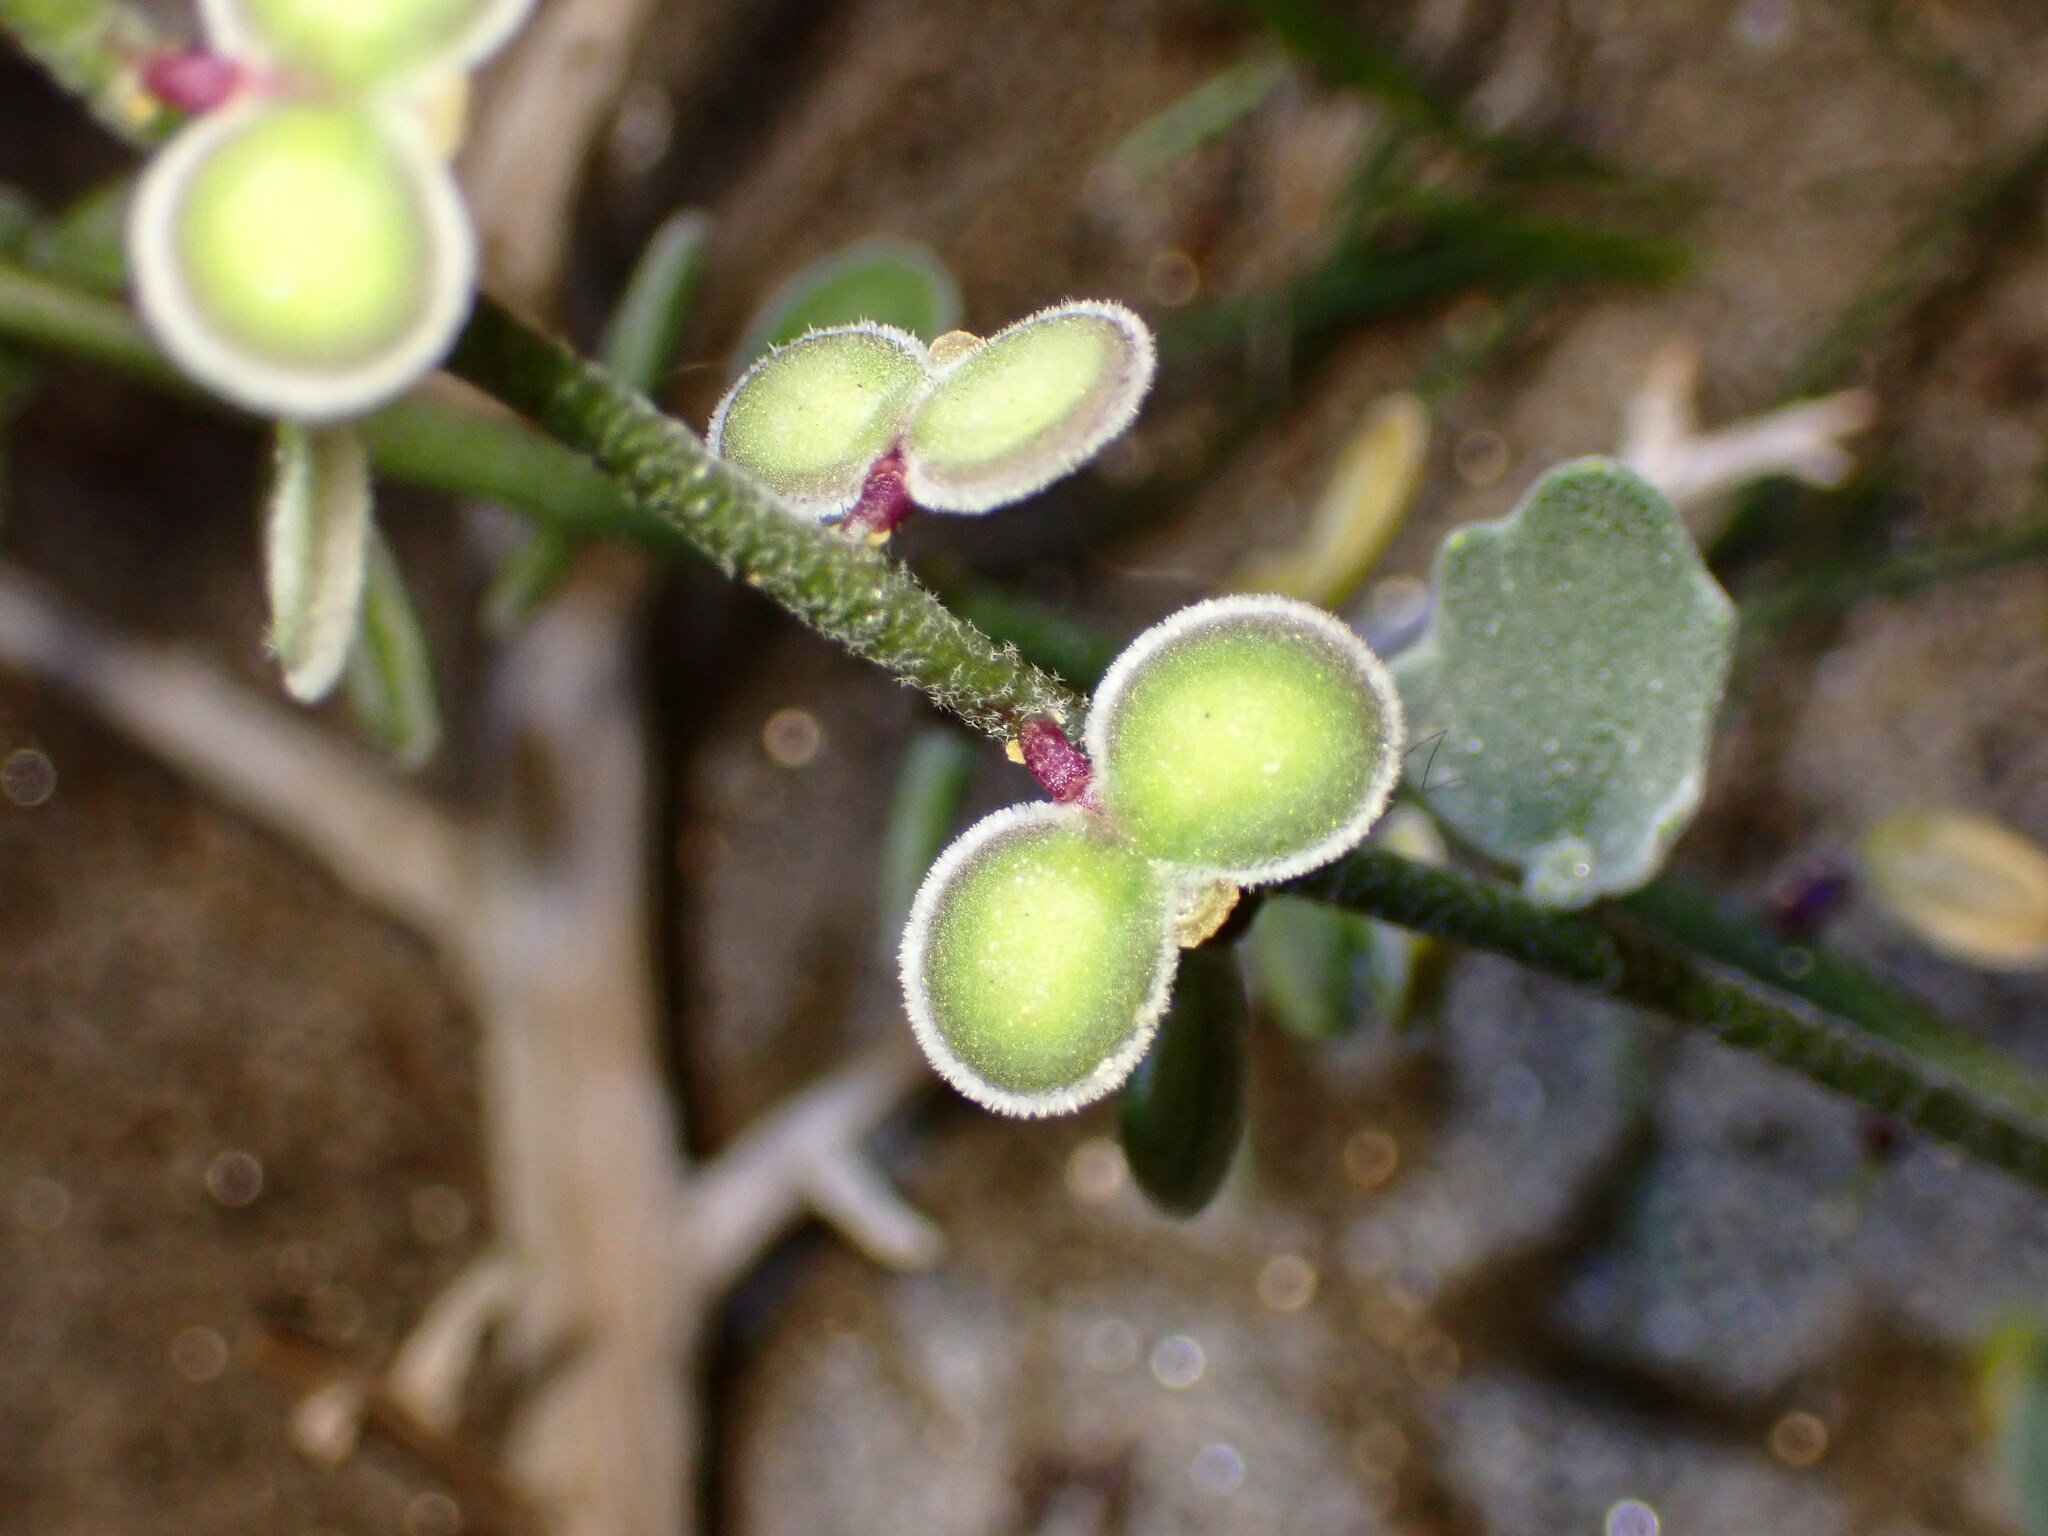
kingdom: Plantae
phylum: Tracheophyta
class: Magnoliopsida
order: Brassicales
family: Brassicaceae
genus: Dithyrea
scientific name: Dithyrea californica
